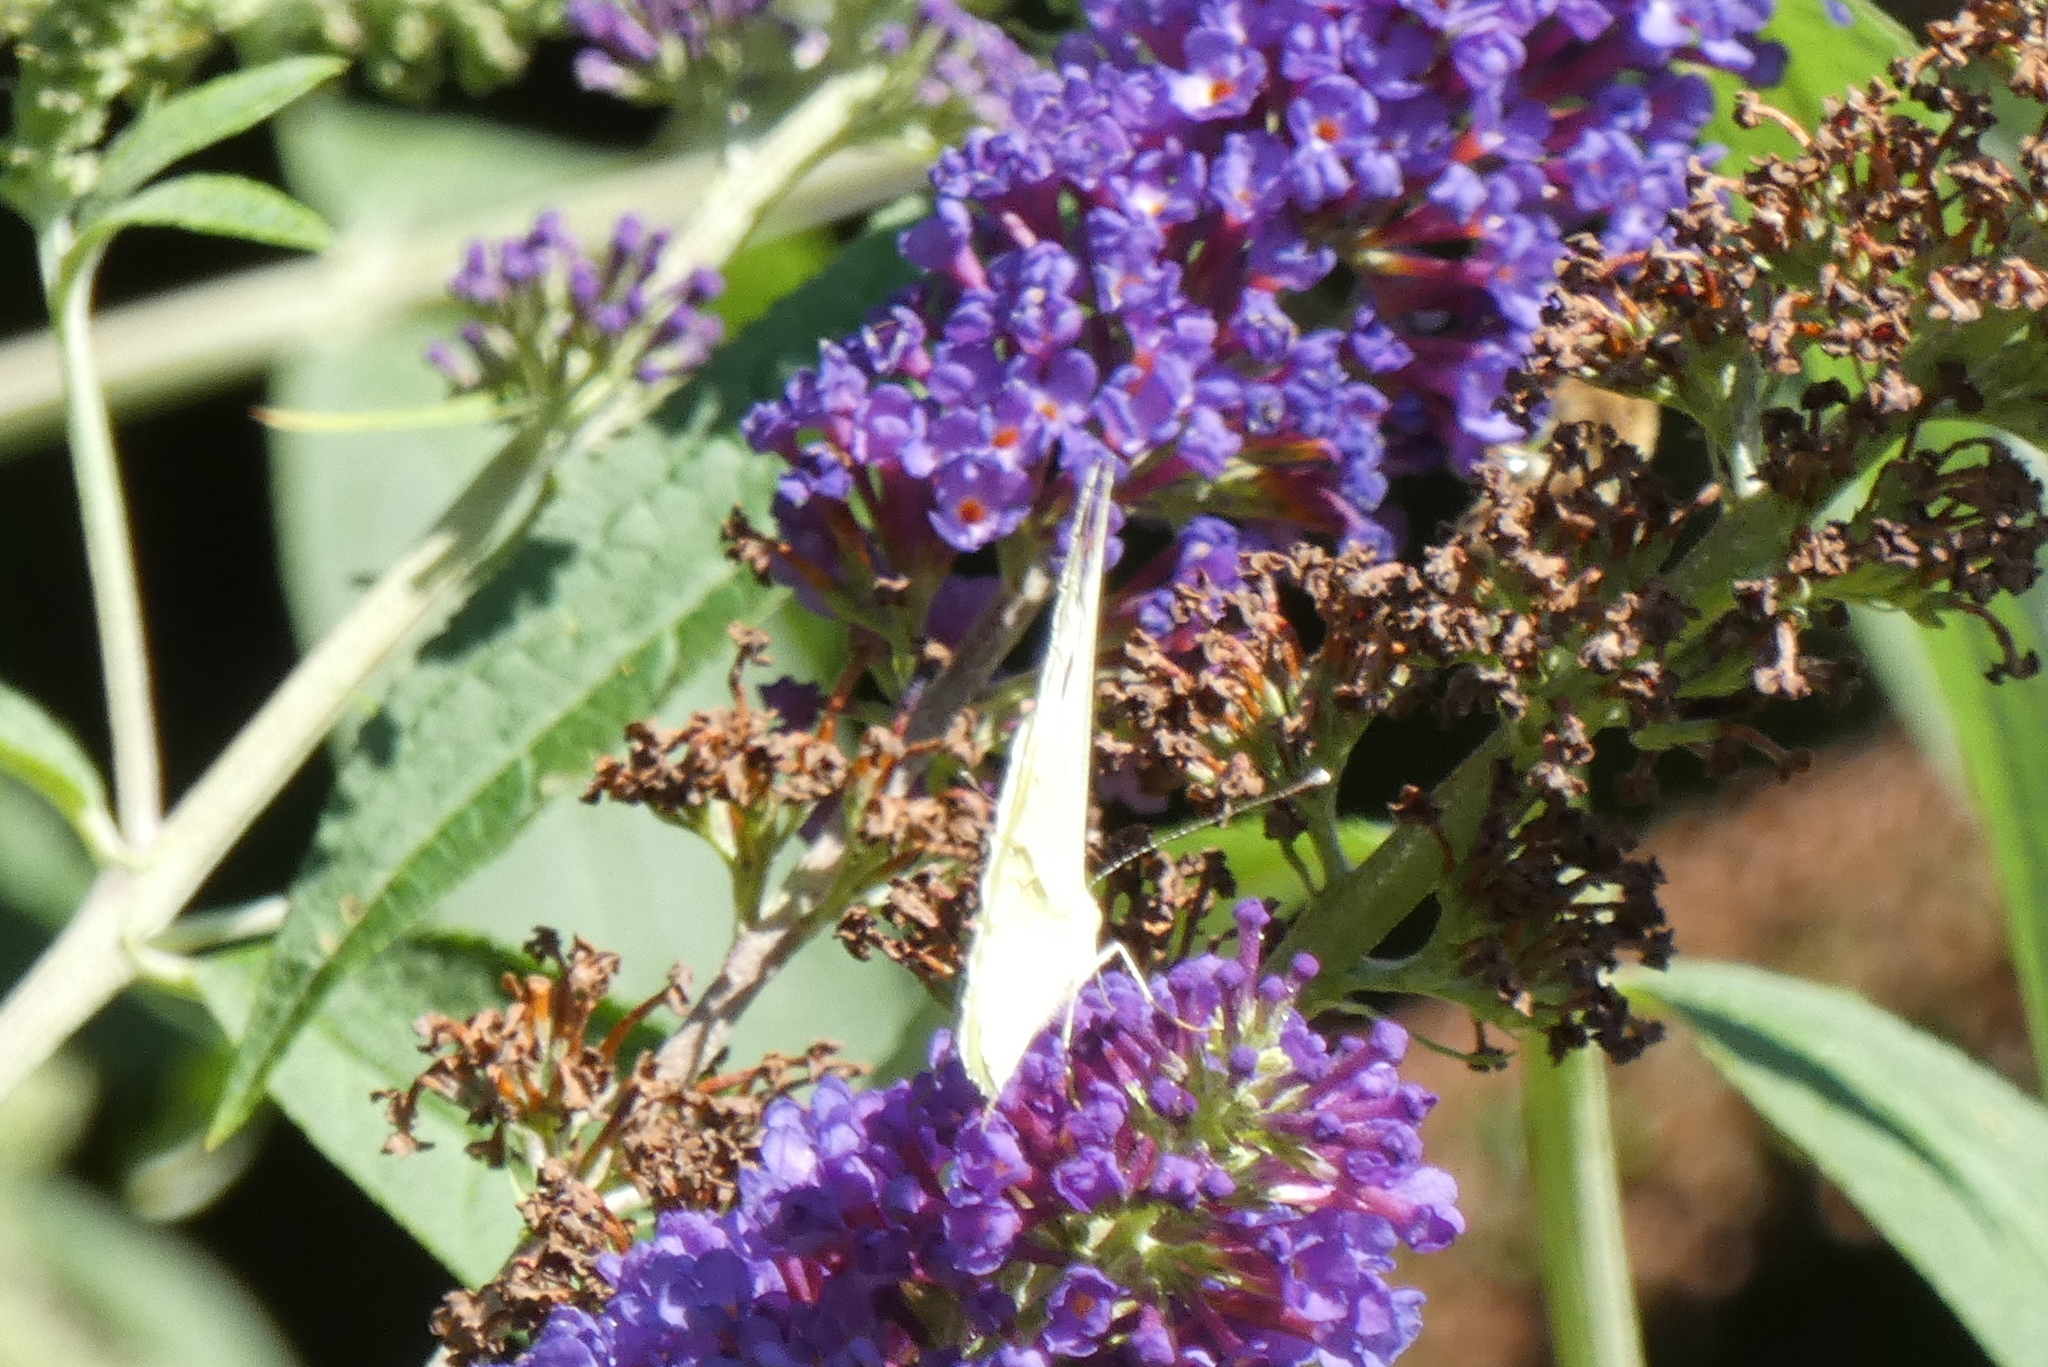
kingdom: Animalia
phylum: Arthropoda
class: Insecta
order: Lepidoptera
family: Pieridae
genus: Pieris
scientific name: Pieris brassicae
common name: Large white
